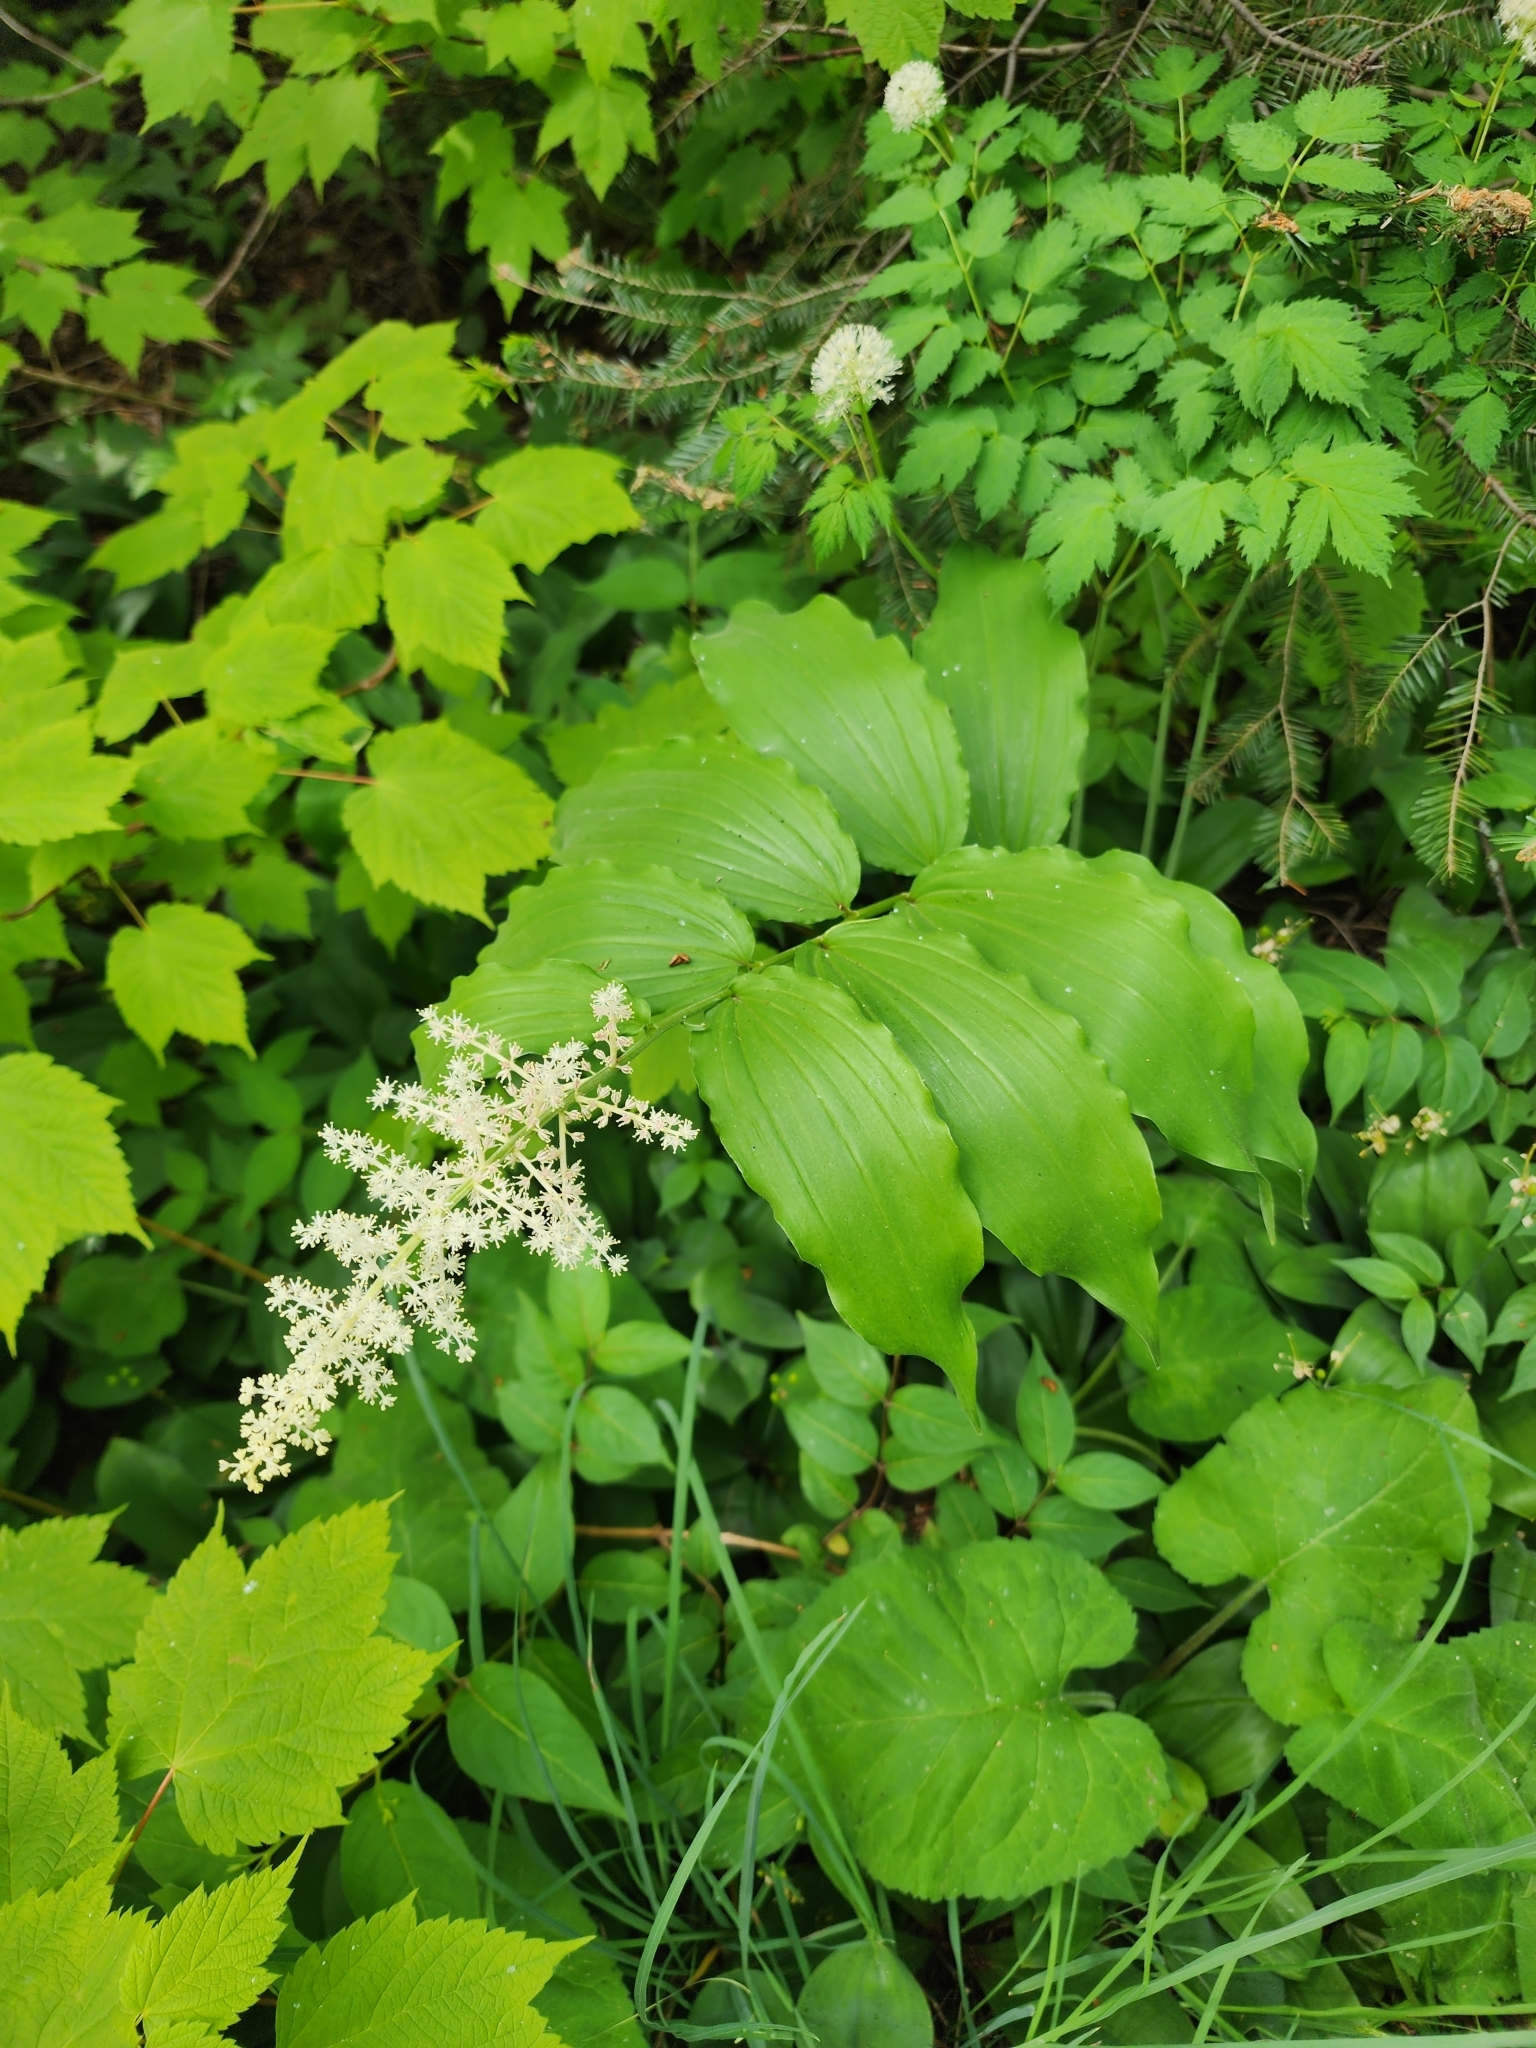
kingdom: Plantae
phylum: Tracheophyta
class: Liliopsida
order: Asparagales
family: Asparagaceae
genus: Maianthemum
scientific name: Maianthemum racemosum
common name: False spikenard
